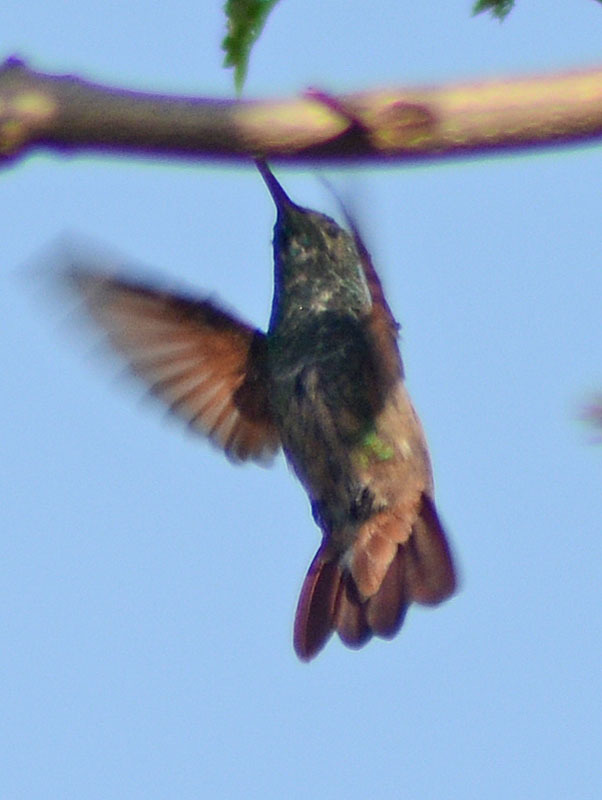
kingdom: Animalia
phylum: Chordata
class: Aves
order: Apodiformes
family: Trochilidae
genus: Saucerottia
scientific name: Saucerottia beryllina
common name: Berylline hummingbird
